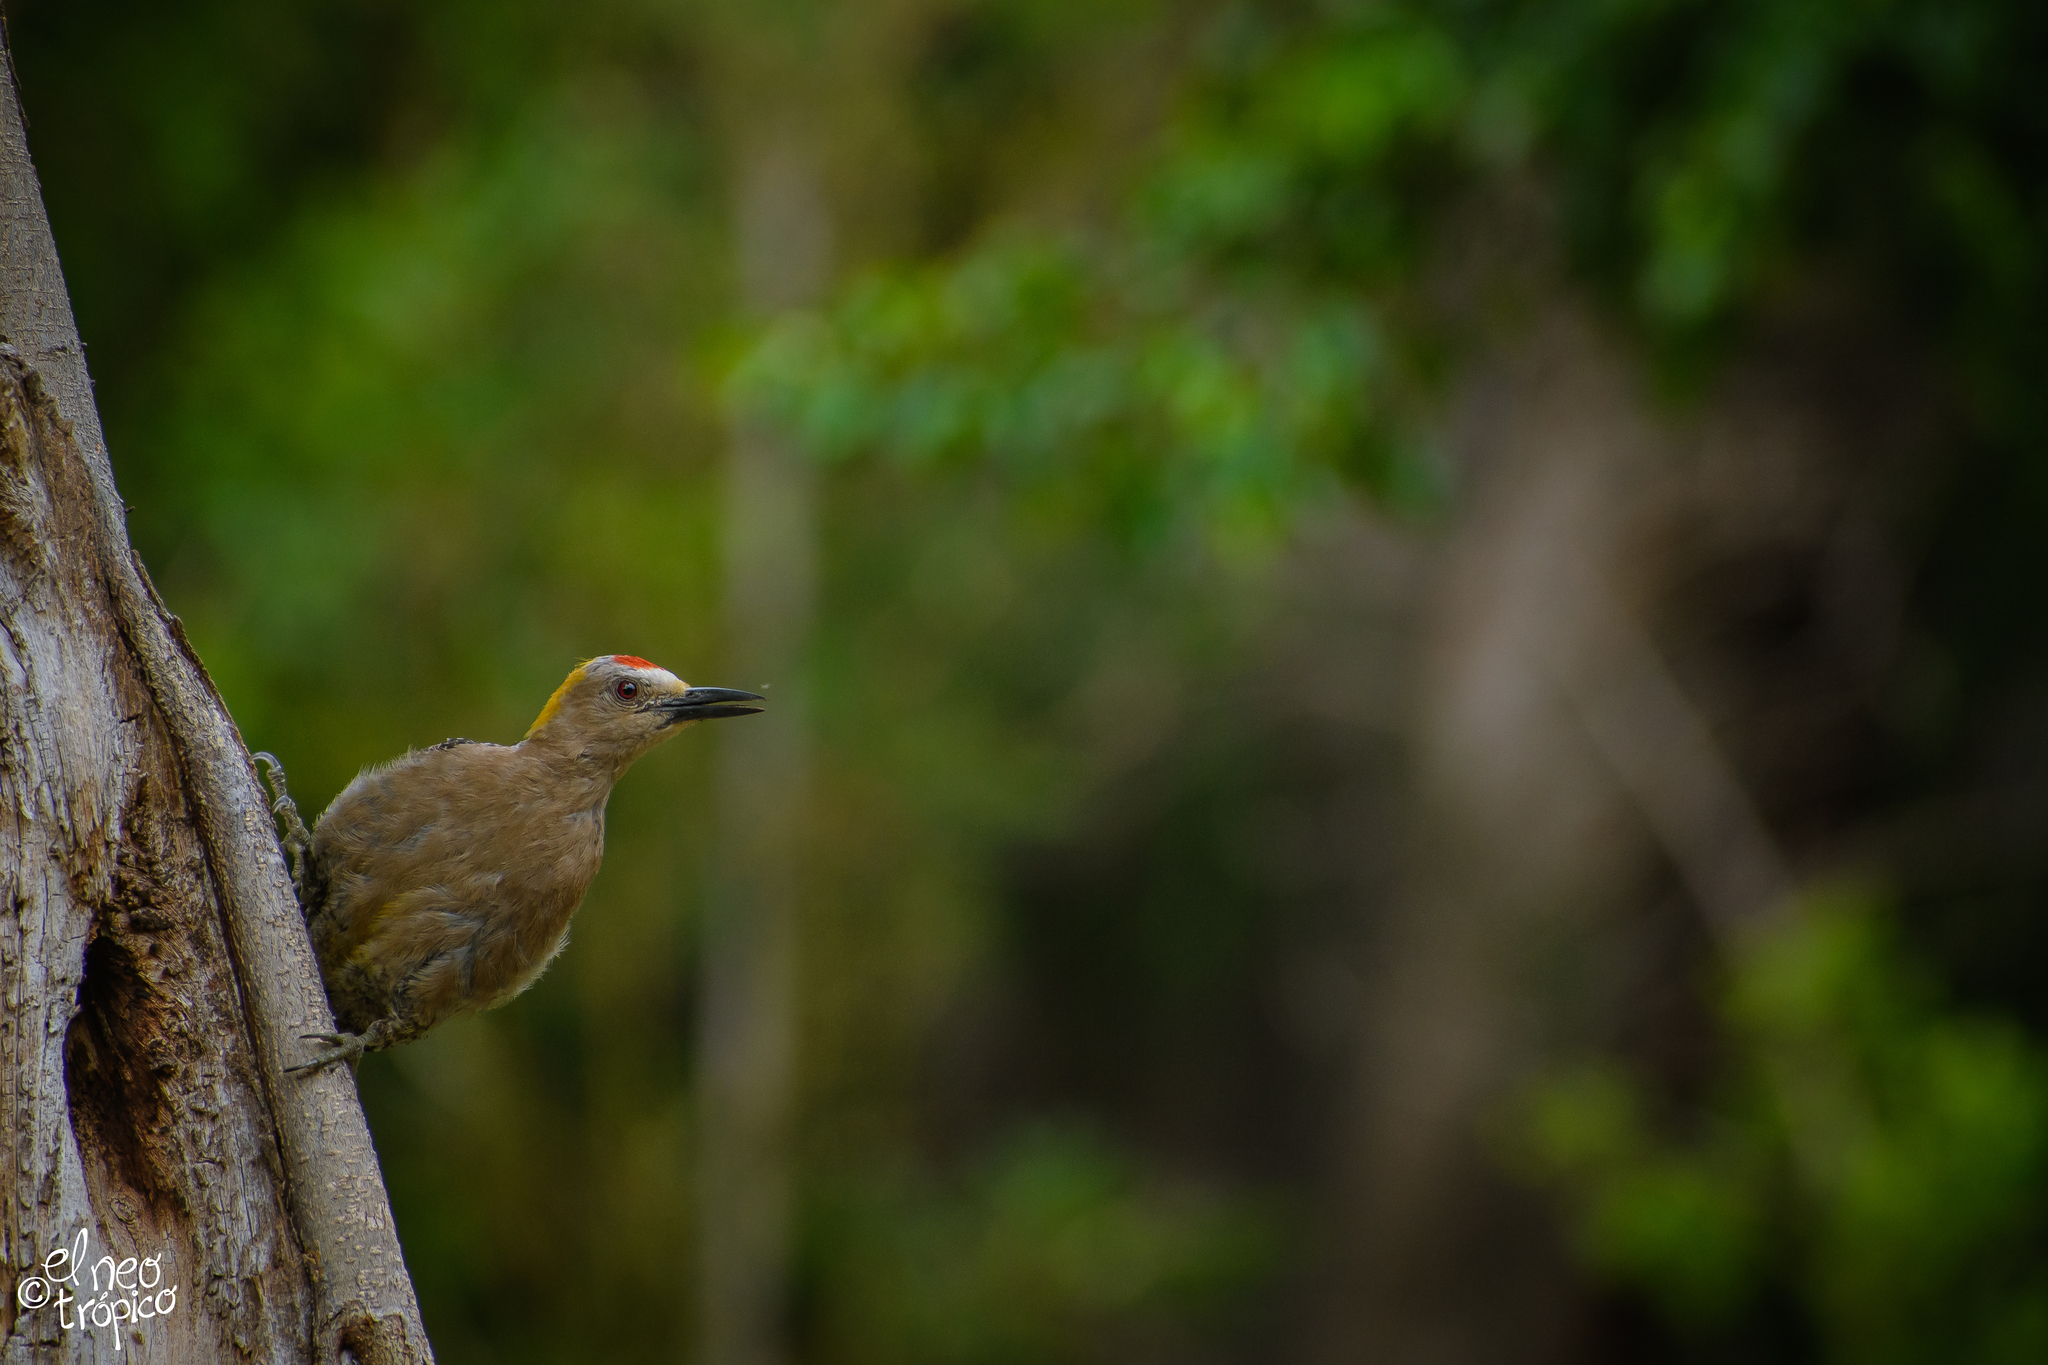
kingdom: Animalia
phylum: Chordata
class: Aves
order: Piciformes
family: Picidae
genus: Melanerpes
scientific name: Melanerpes aurifrons
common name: Golden-fronted woodpecker
